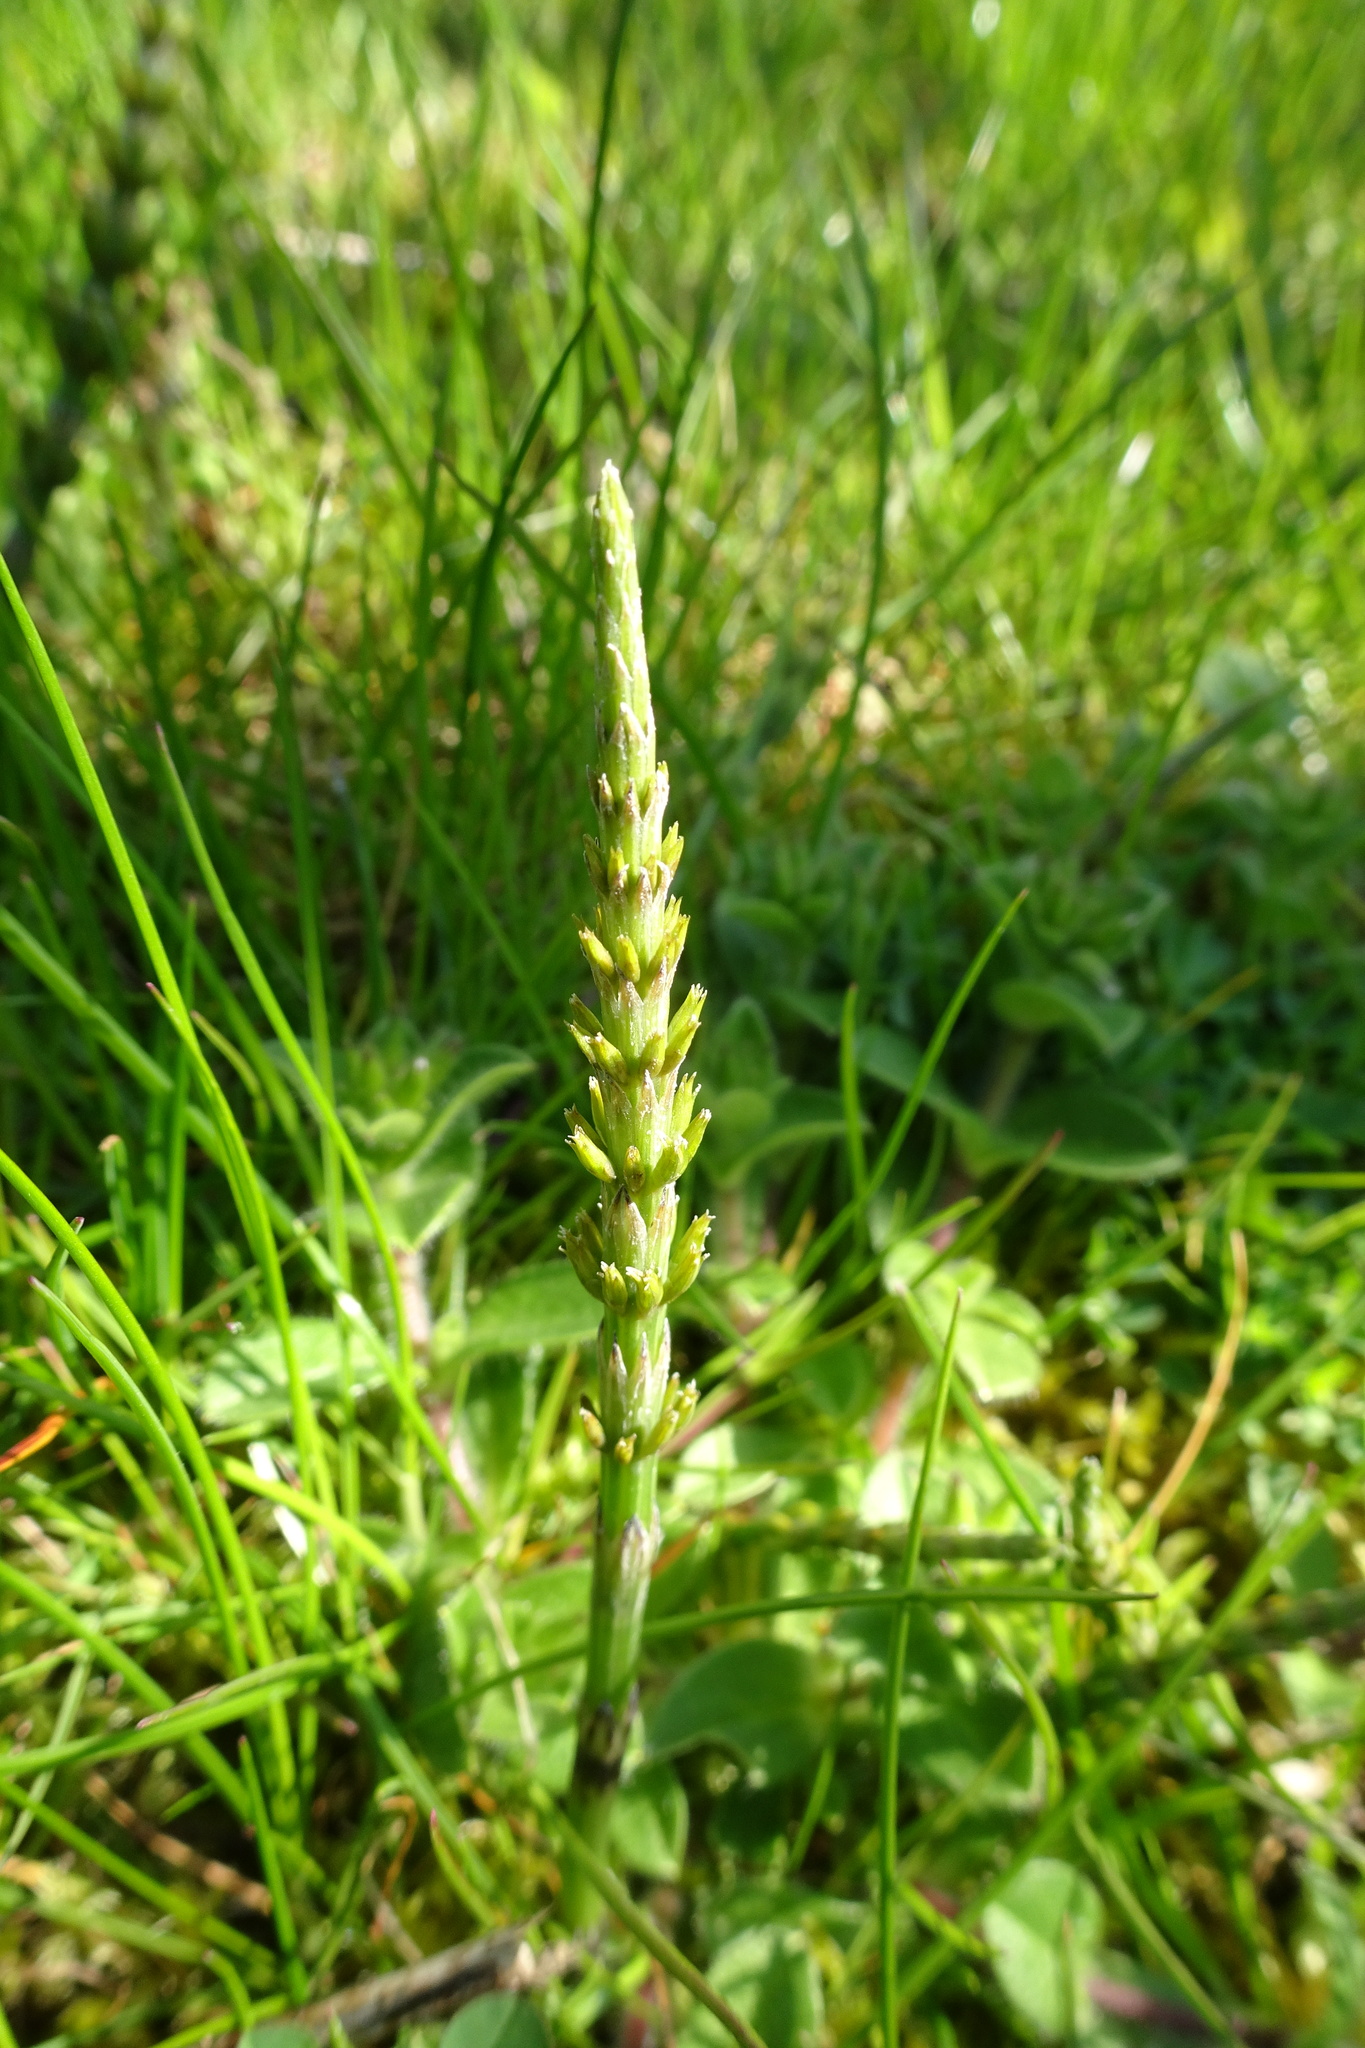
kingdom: Plantae
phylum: Tracheophyta
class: Polypodiopsida
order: Equisetales
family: Equisetaceae
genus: Equisetum
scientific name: Equisetum arvense
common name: Field horsetail
